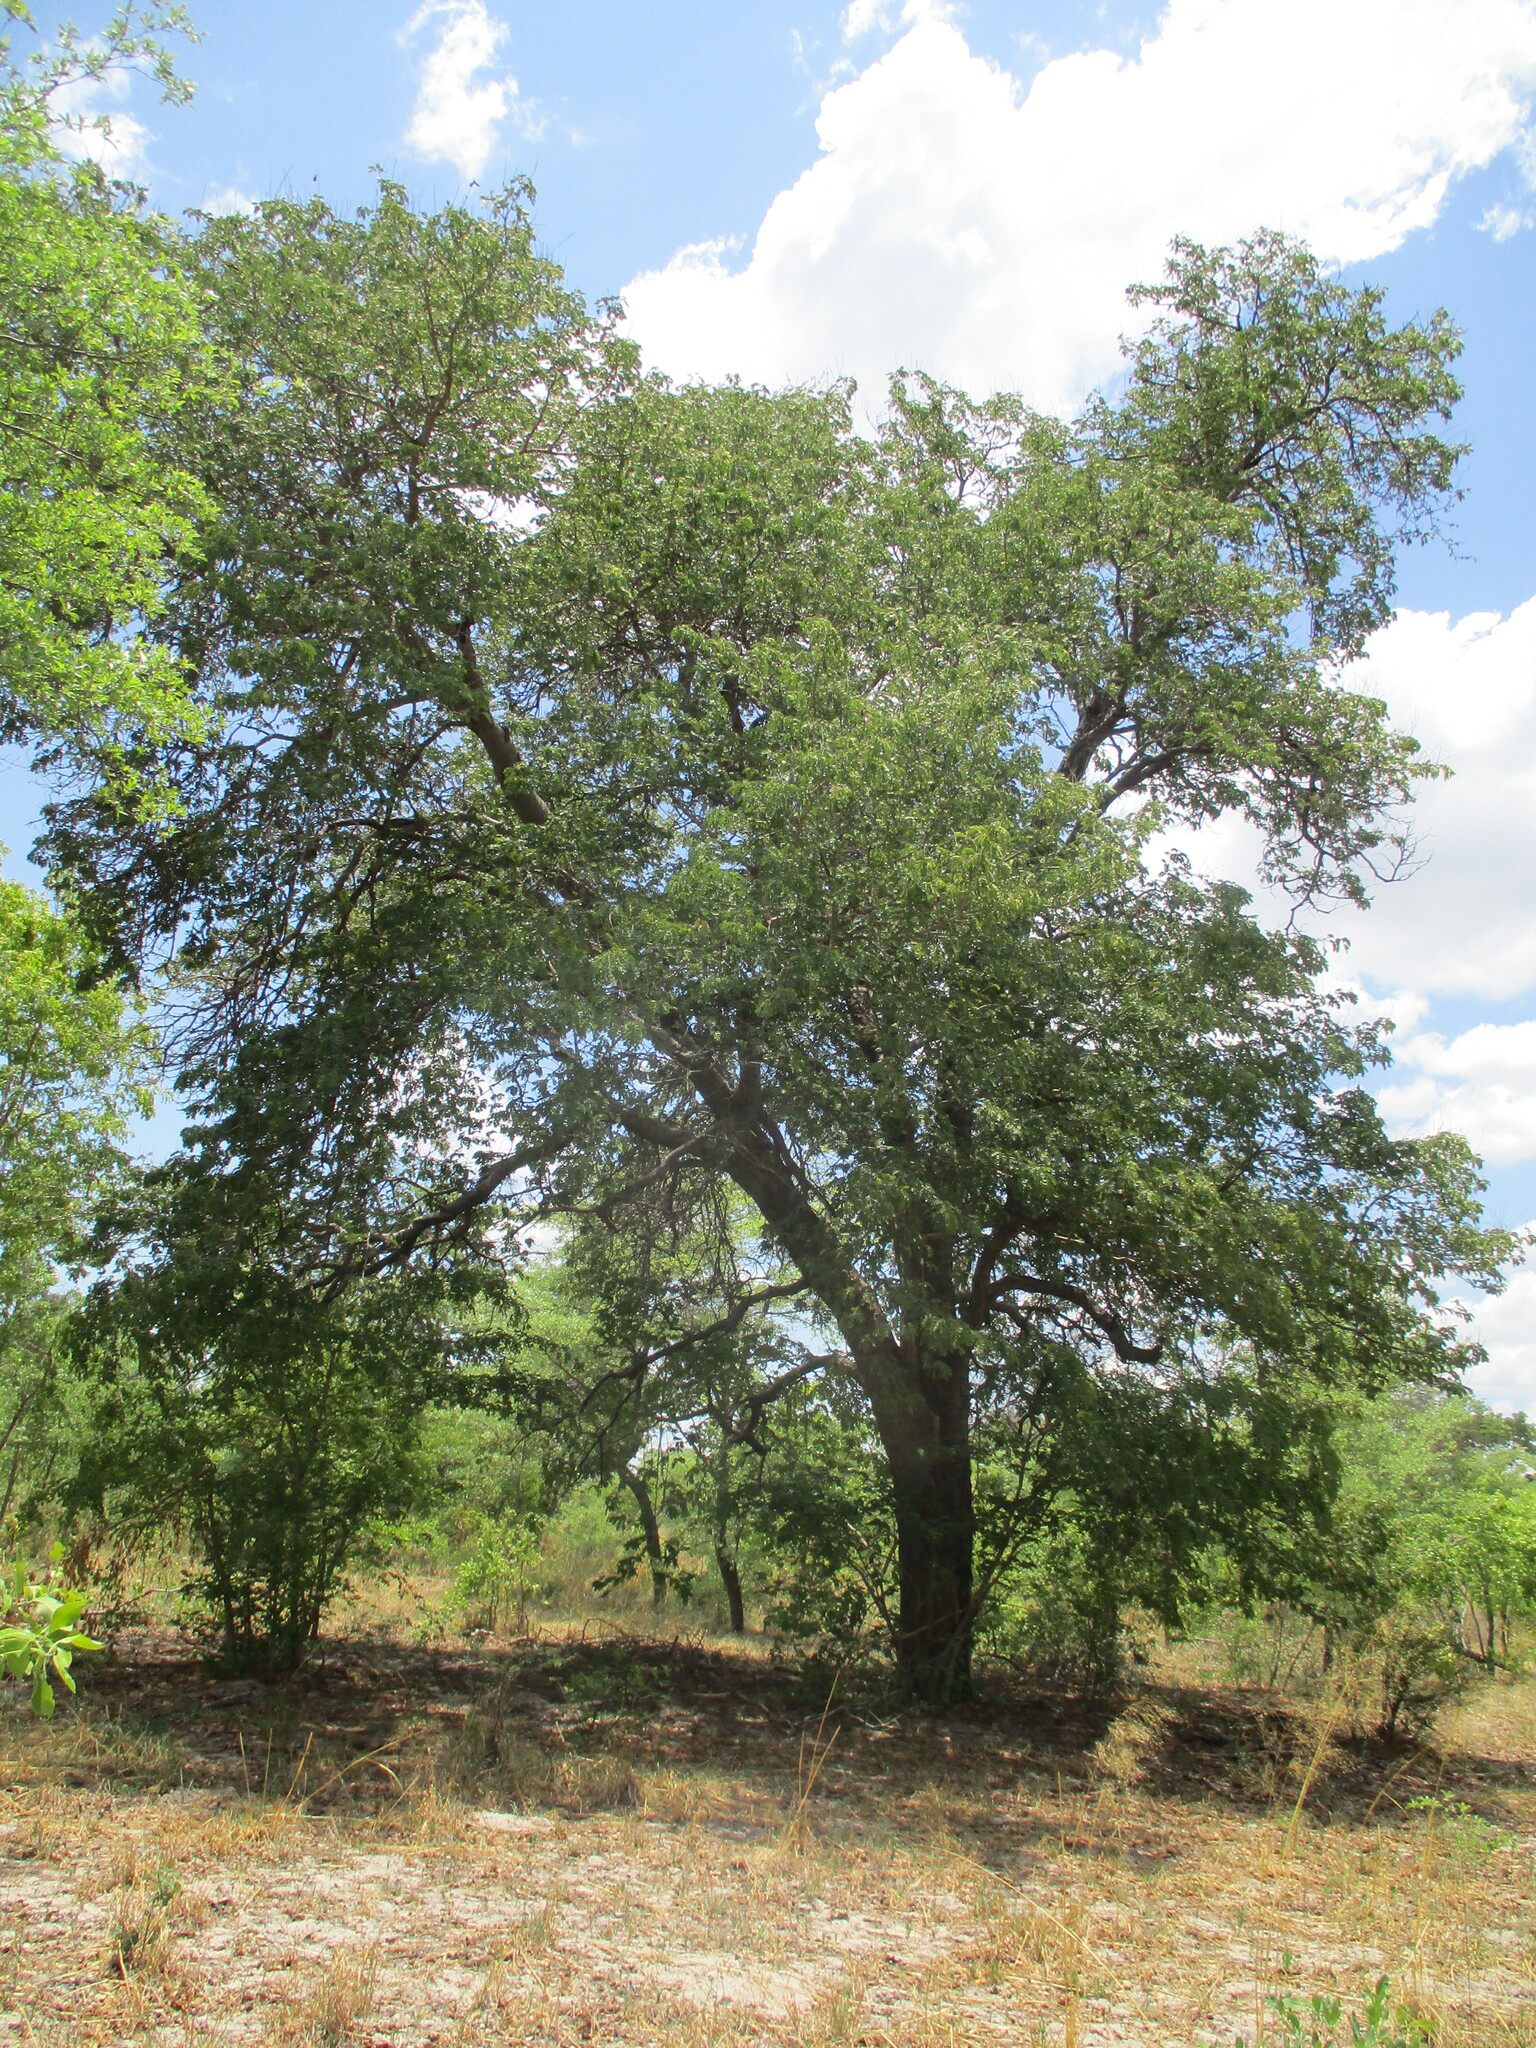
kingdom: Plantae
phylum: Tracheophyta
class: Magnoliopsida
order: Fabales
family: Fabaceae
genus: Baikiaea
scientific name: Baikiaea plurijuga
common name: Rhodesian-teak
